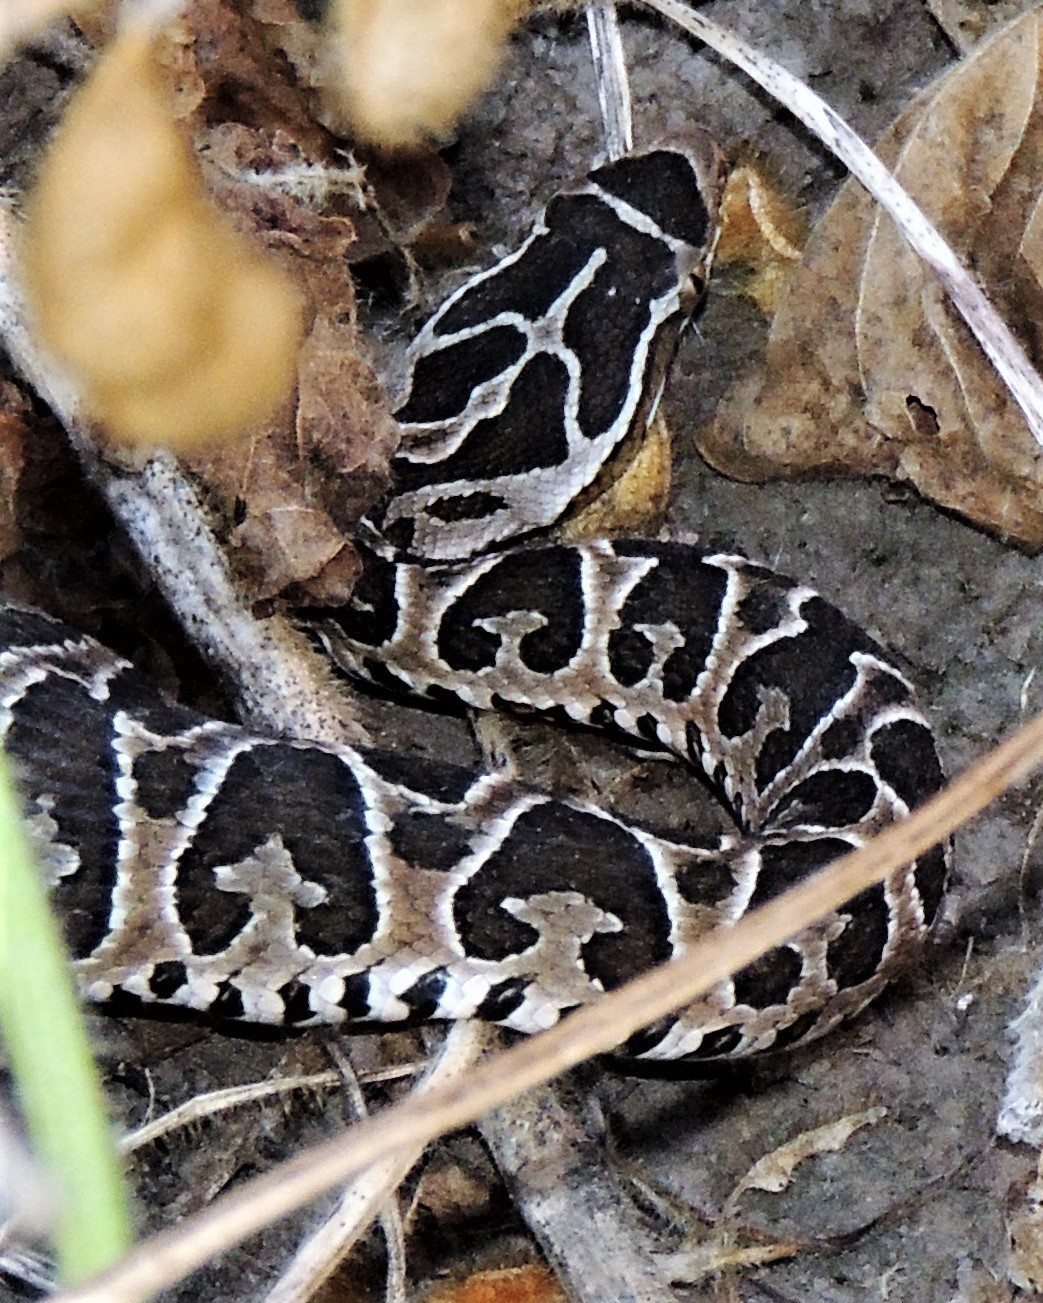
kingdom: Animalia
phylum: Chordata
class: Squamata
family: Viperidae
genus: Bothrops
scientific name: Bothrops alternatus
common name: Urutu
